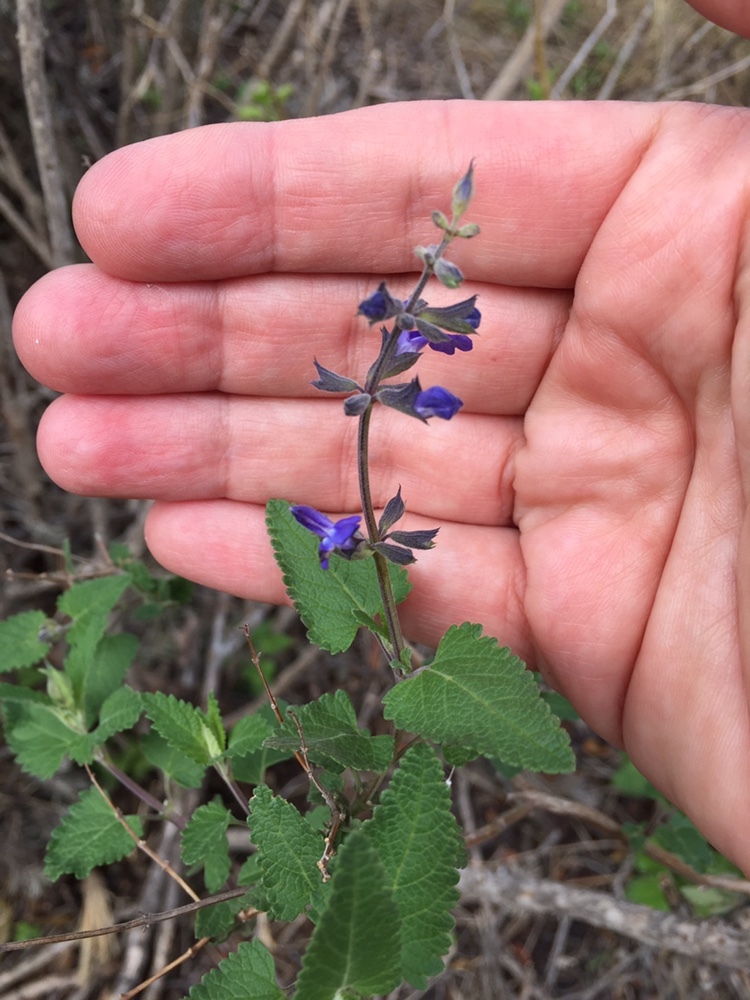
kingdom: Plantae
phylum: Tracheophyta
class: Magnoliopsida
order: Lamiales
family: Lamiaceae
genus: Salvia
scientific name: Salvia cuspidata
